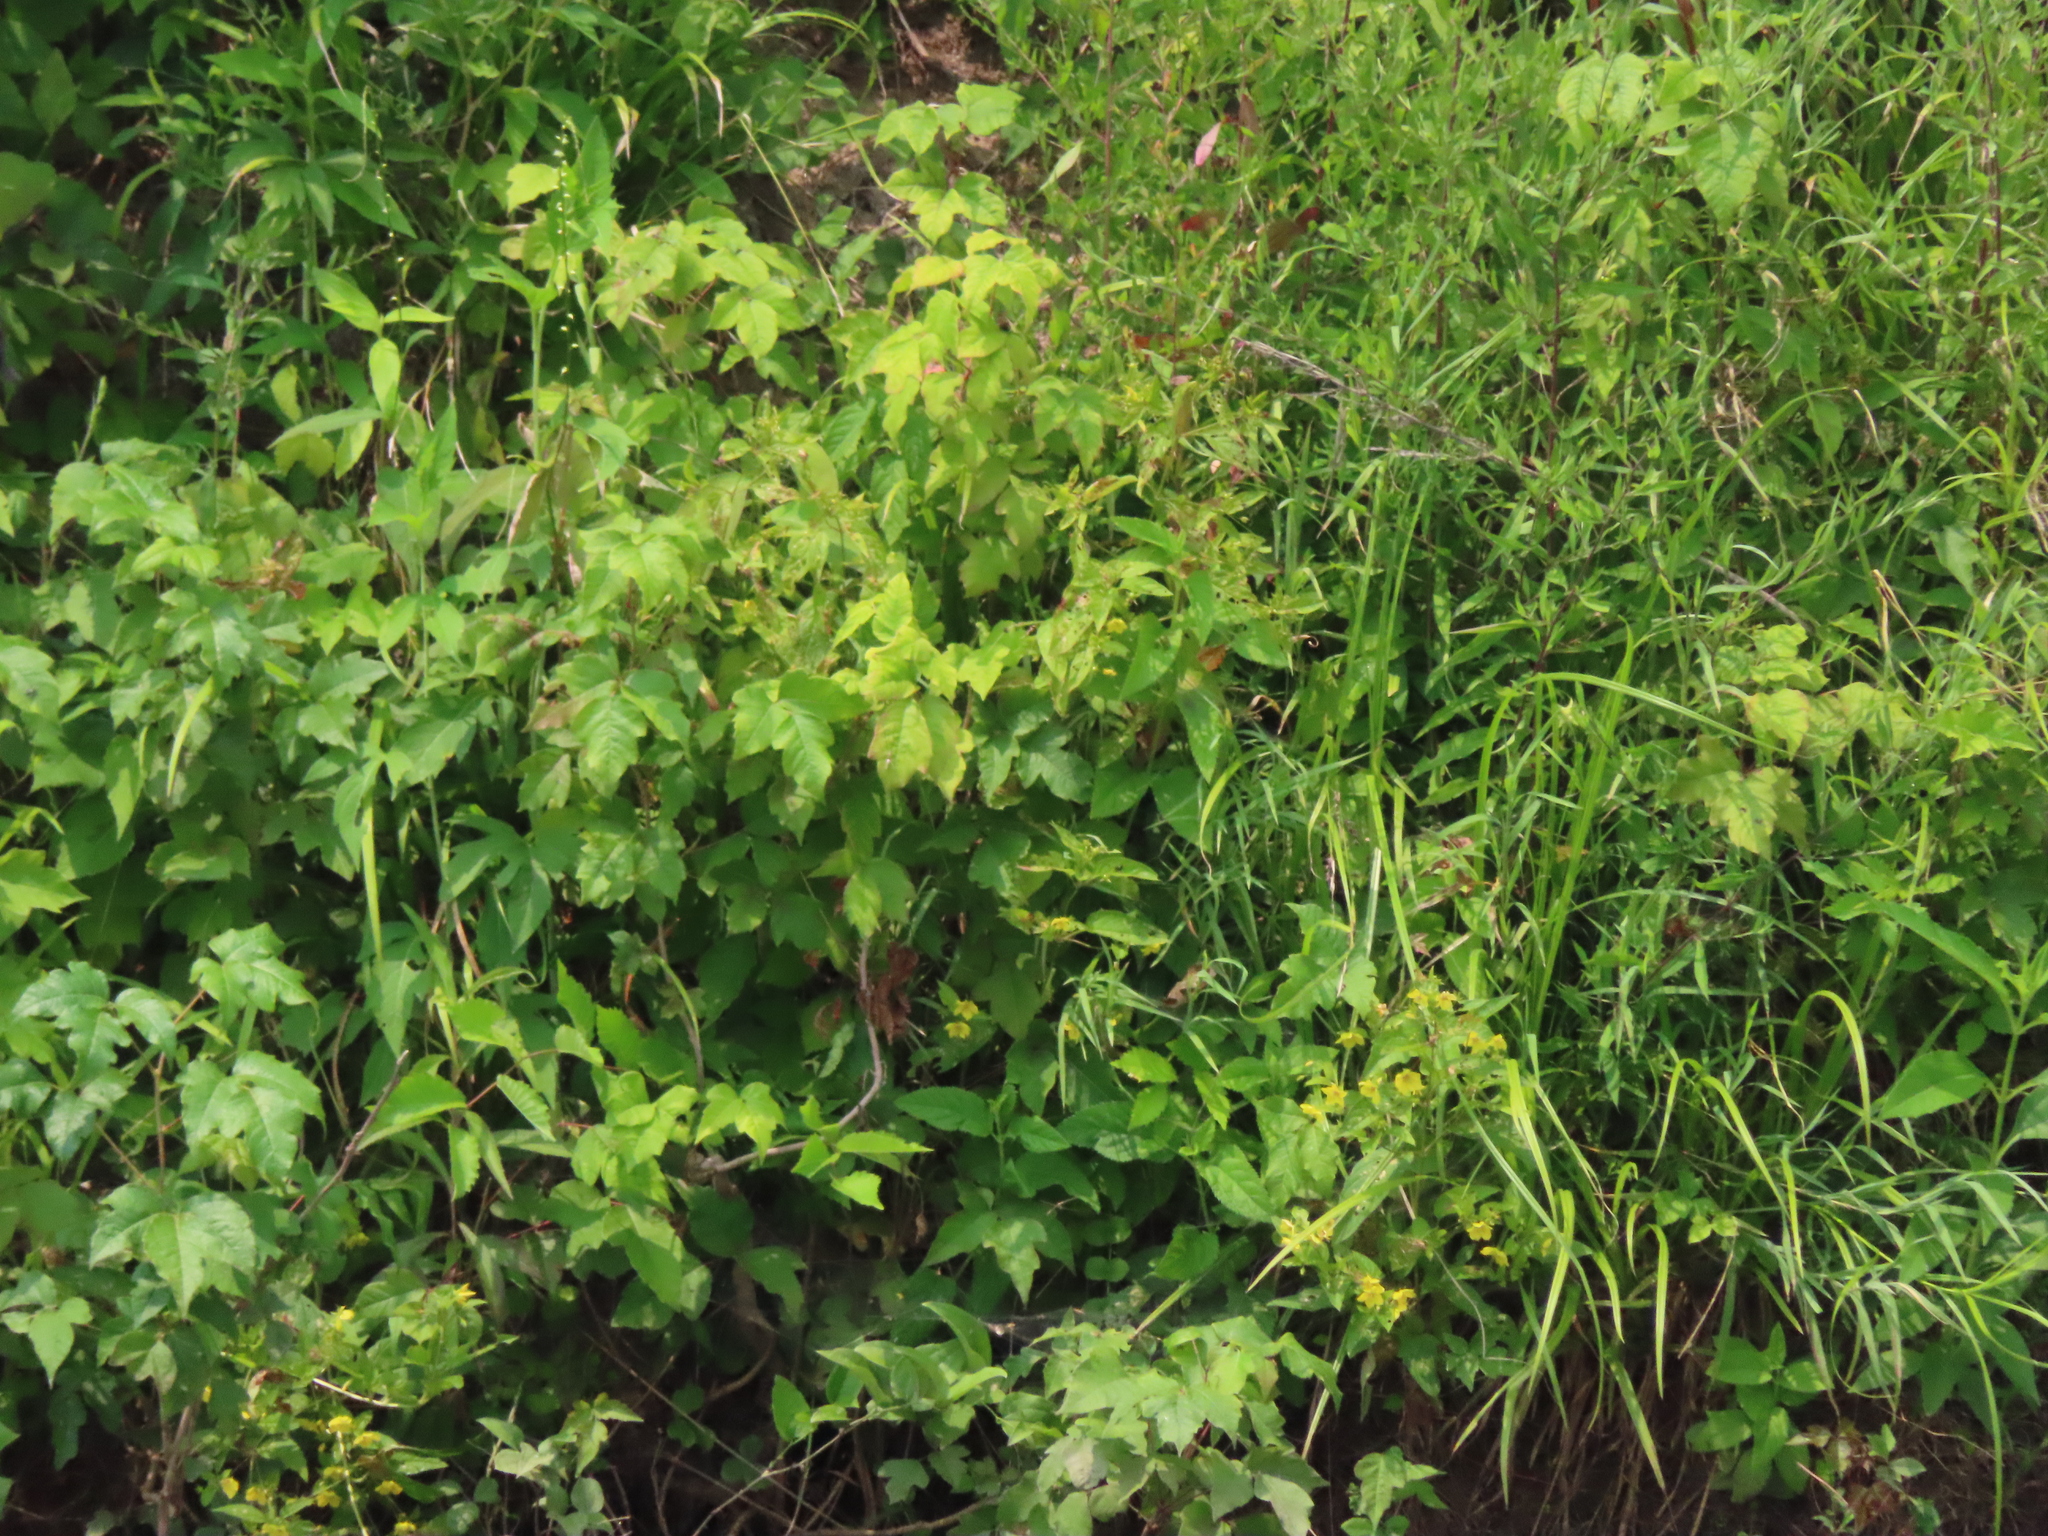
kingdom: Plantae
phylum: Tracheophyta
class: Magnoliopsida
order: Sapindales
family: Anacardiaceae
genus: Toxicodendron
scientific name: Toxicodendron radicans
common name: Poison ivy
